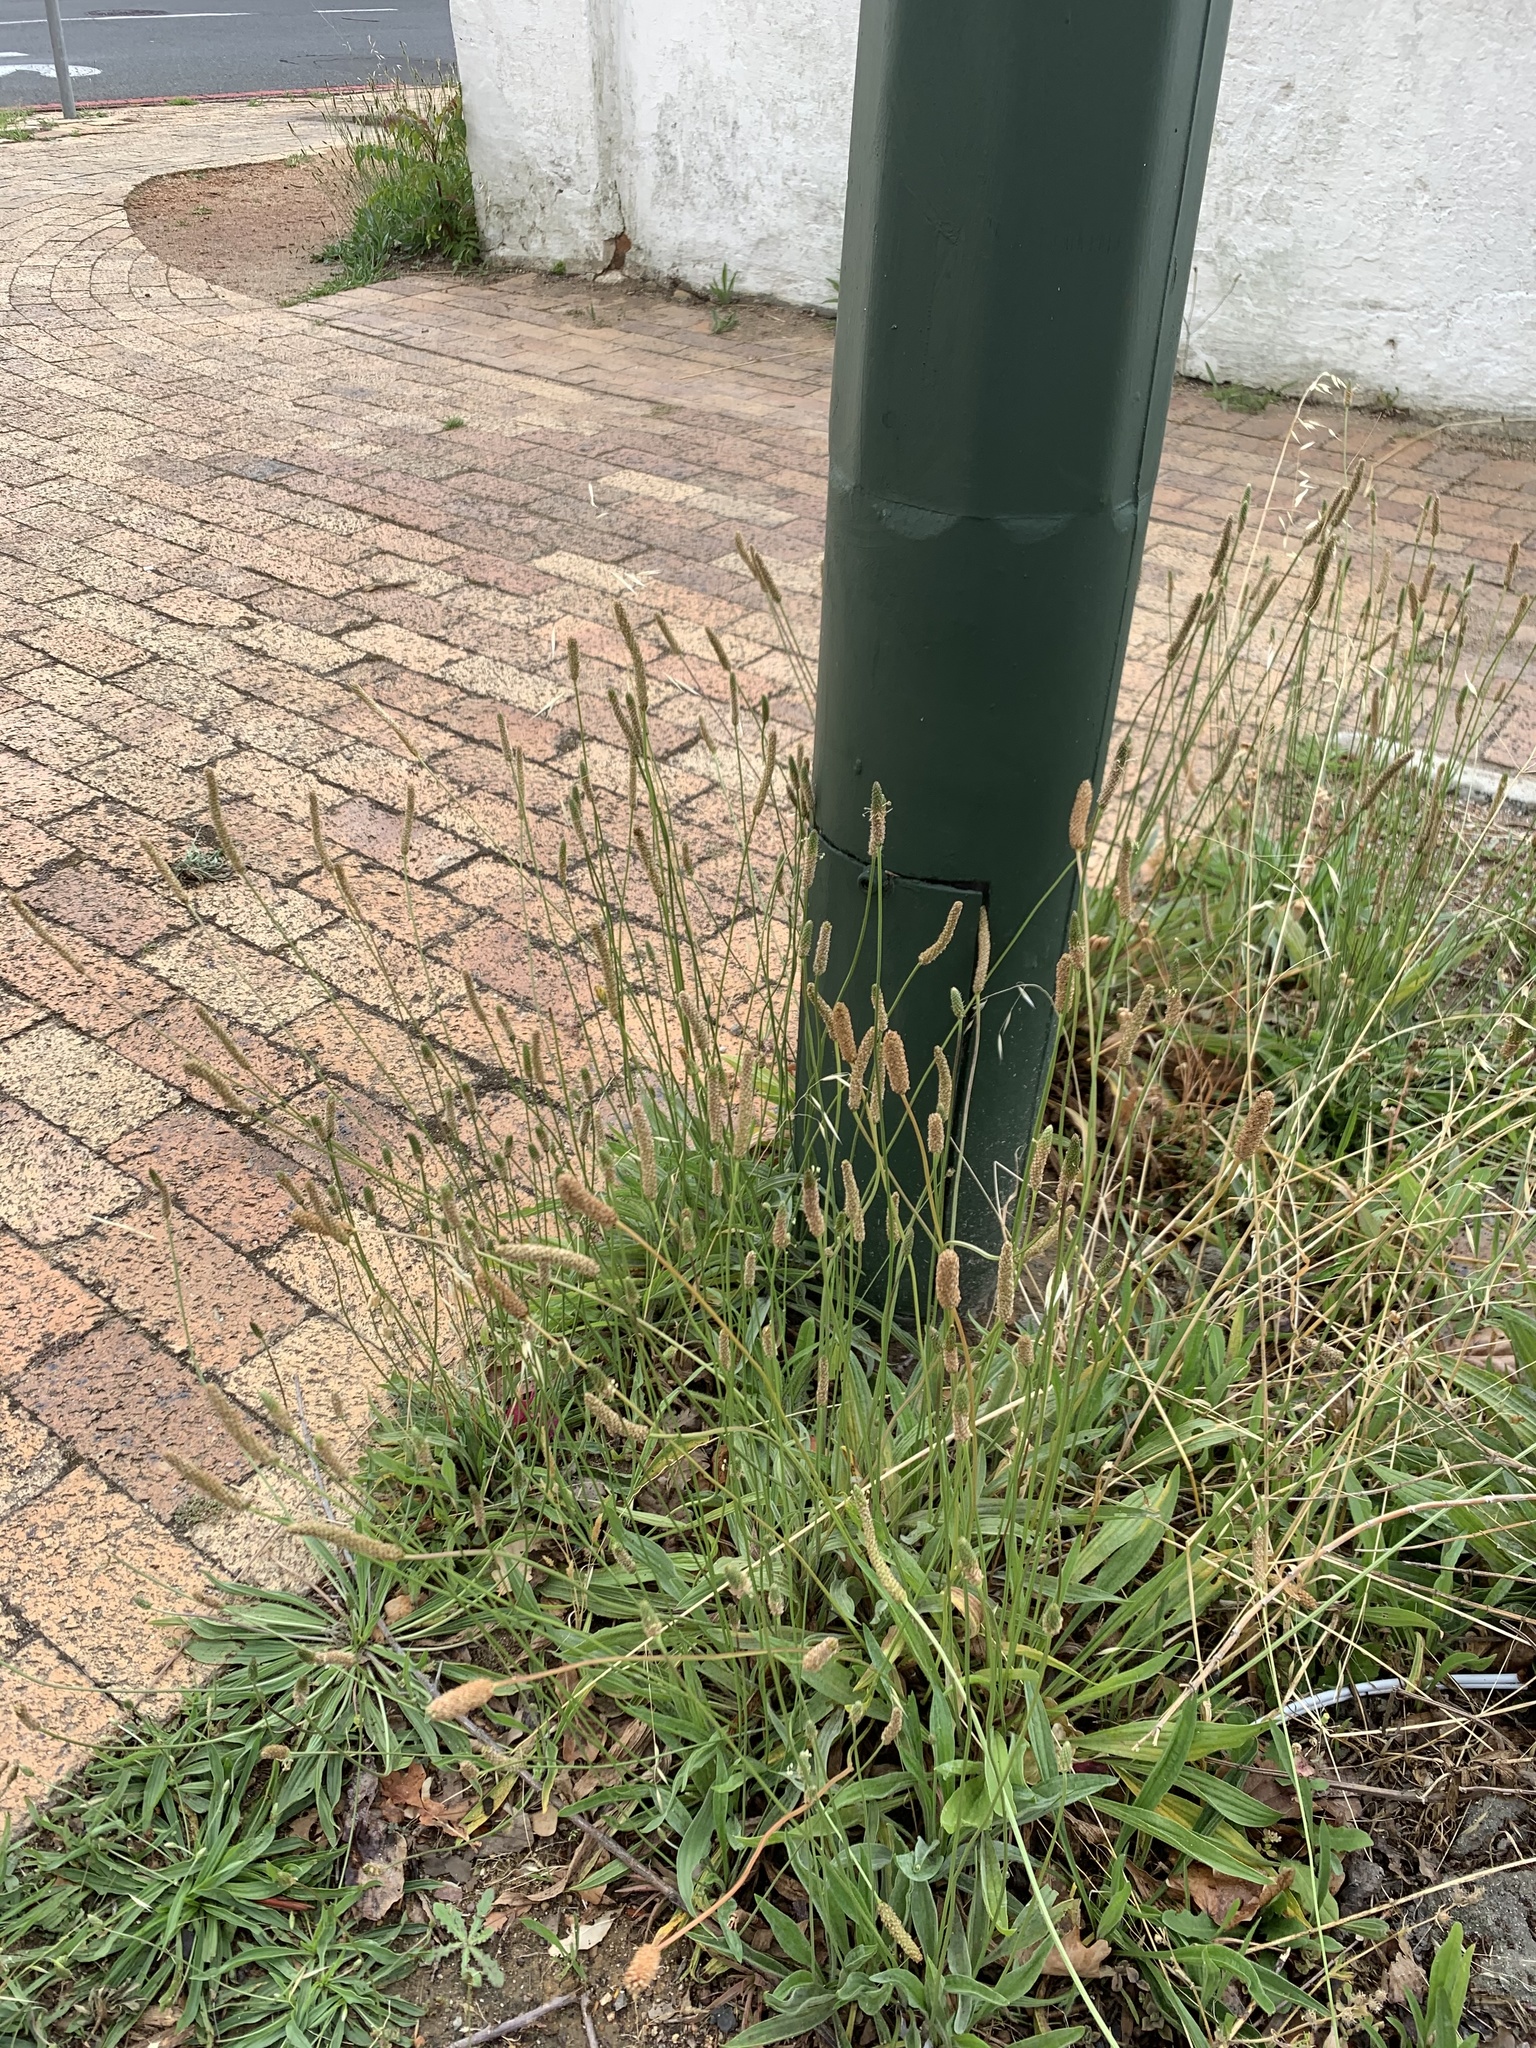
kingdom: Plantae
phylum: Tracheophyta
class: Magnoliopsida
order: Lamiales
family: Plantaginaceae
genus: Plantago
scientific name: Plantago lanceolata
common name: Ribwort plantain
